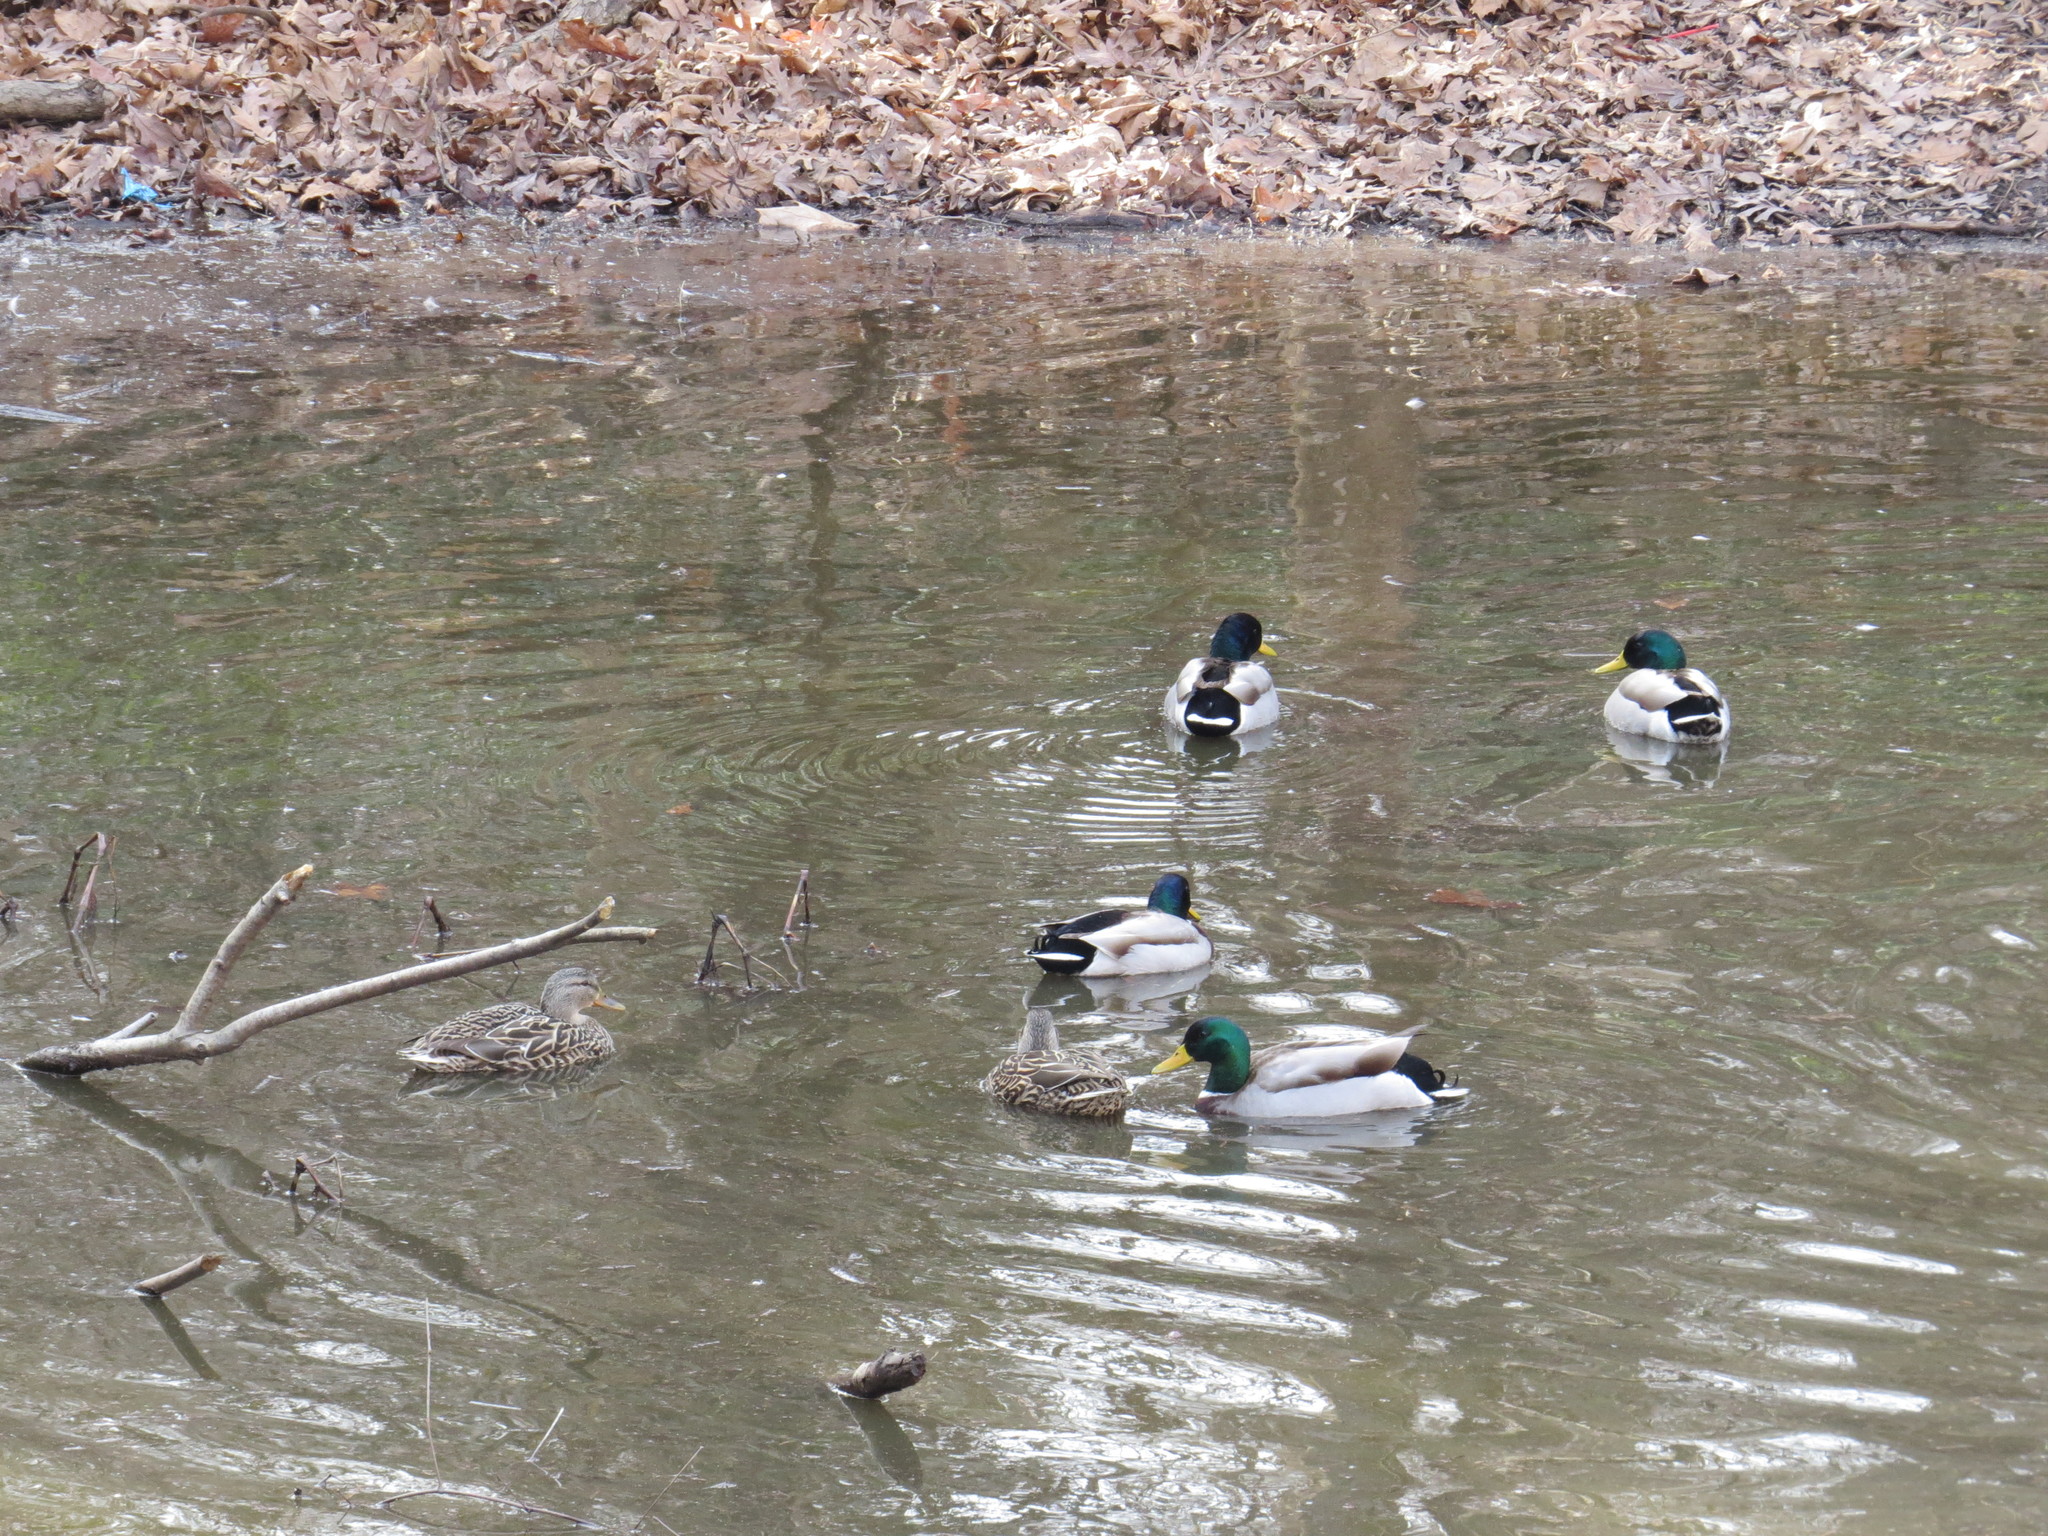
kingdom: Animalia
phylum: Chordata
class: Aves
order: Anseriformes
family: Anatidae
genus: Anas
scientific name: Anas platyrhynchos
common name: Mallard
